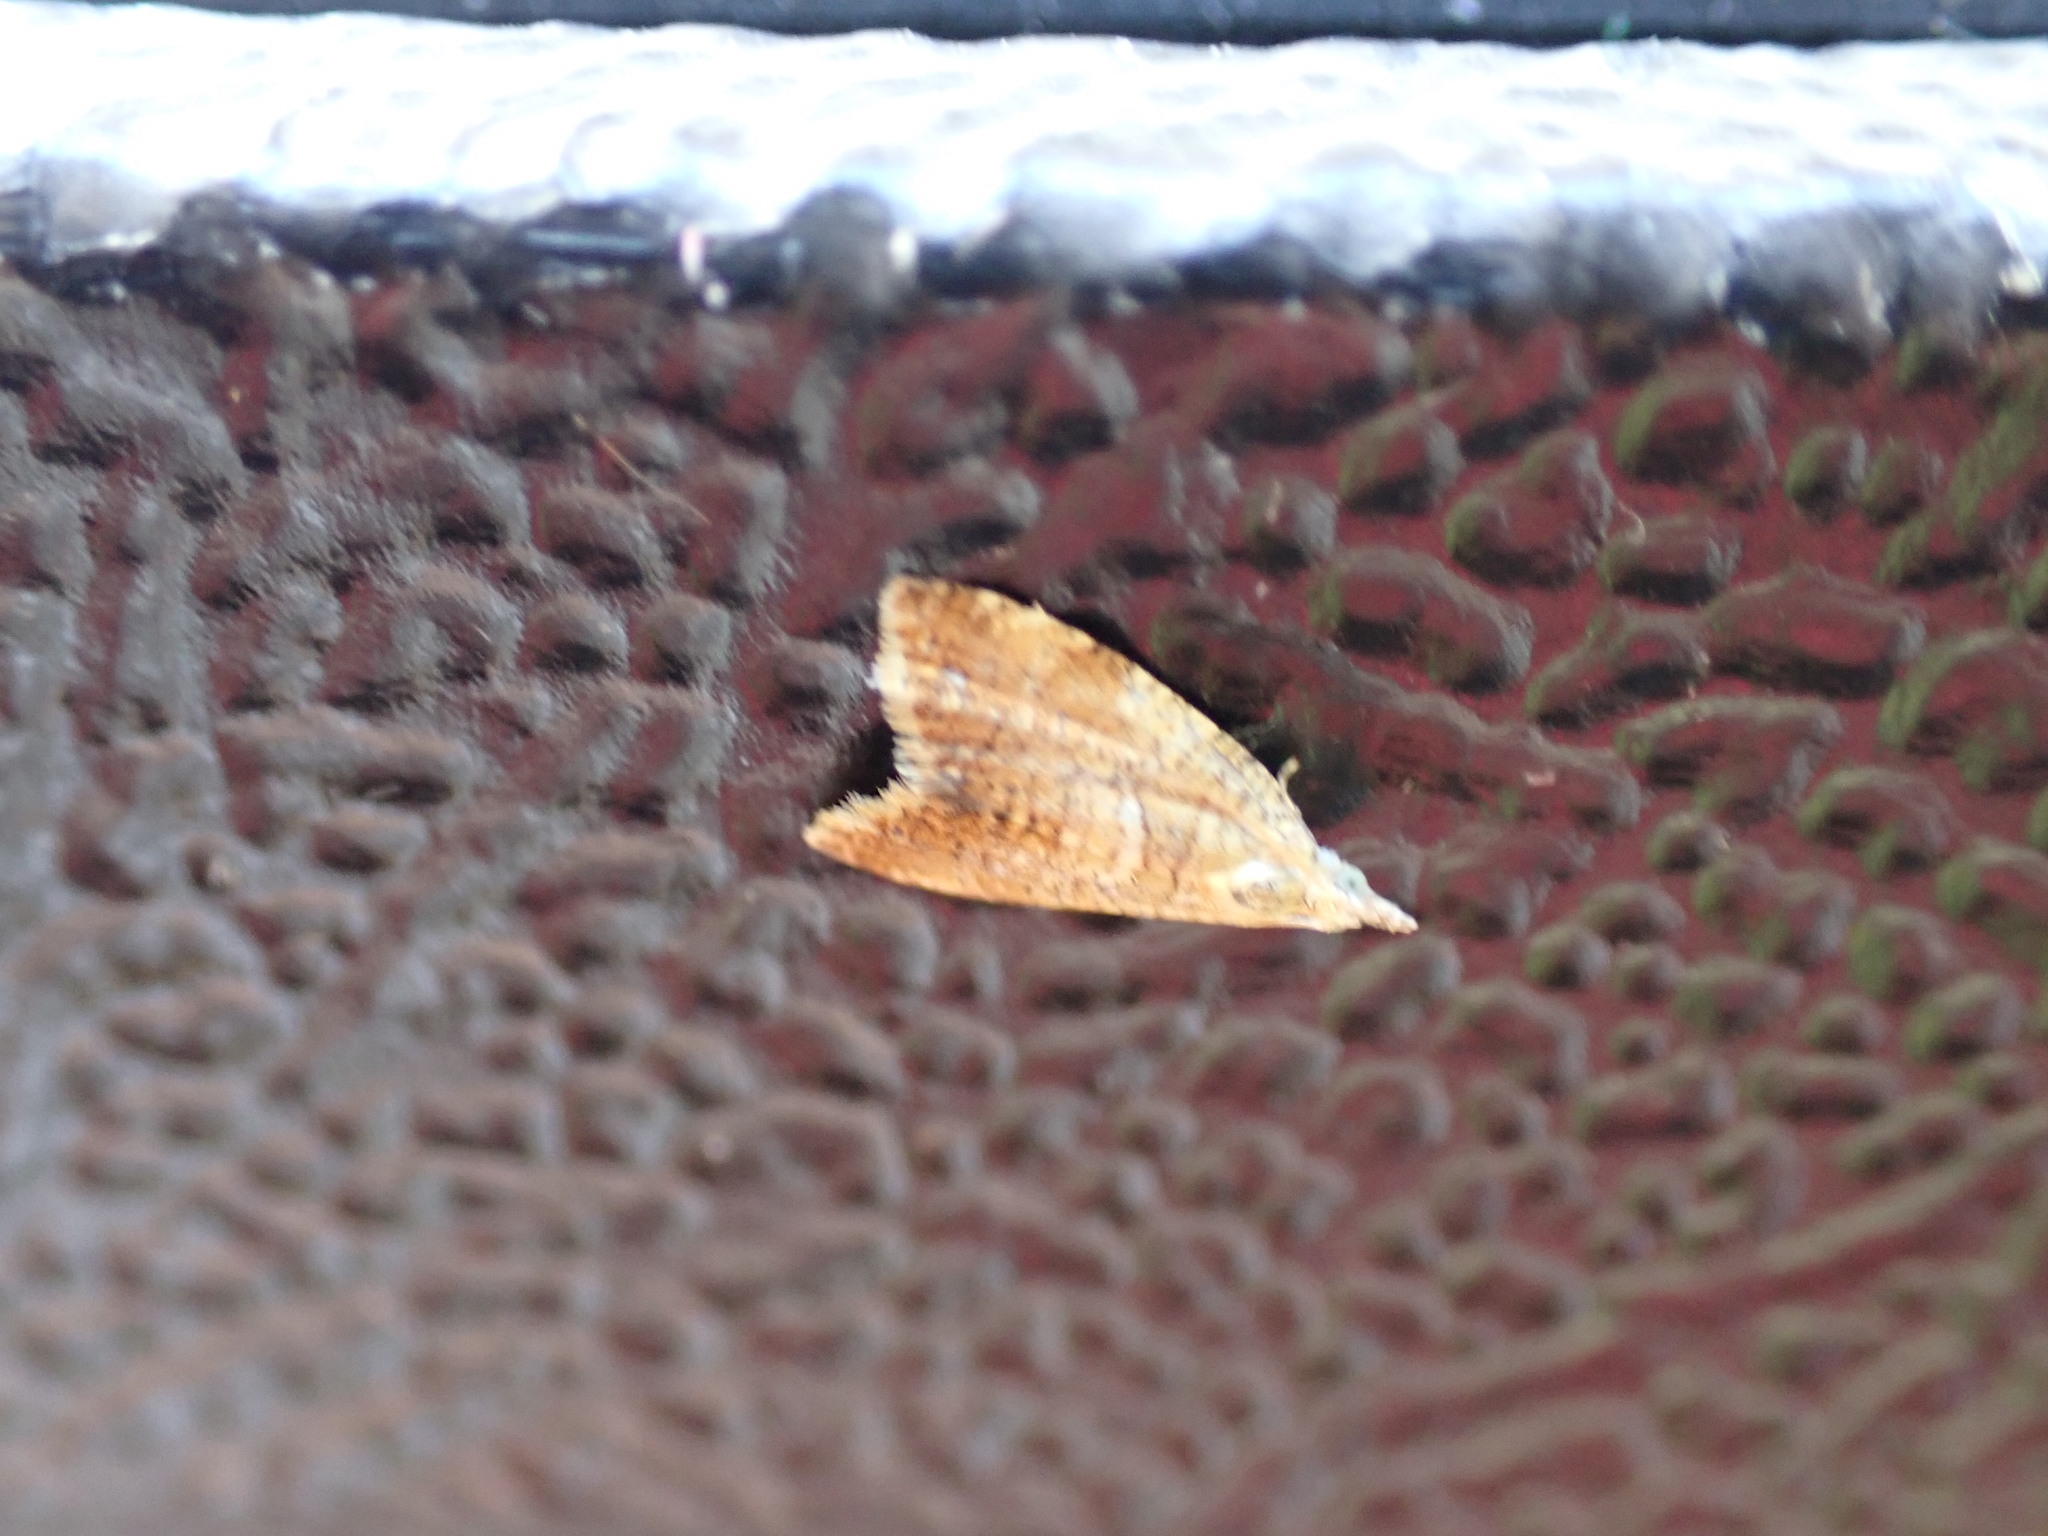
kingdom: Animalia
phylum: Arthropoda
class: Insecta
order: Lepidoptera
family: Tortricidae
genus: Pseudargyrotoza
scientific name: Pseudargyrotoza conwagana
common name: Yellow-spot twist
